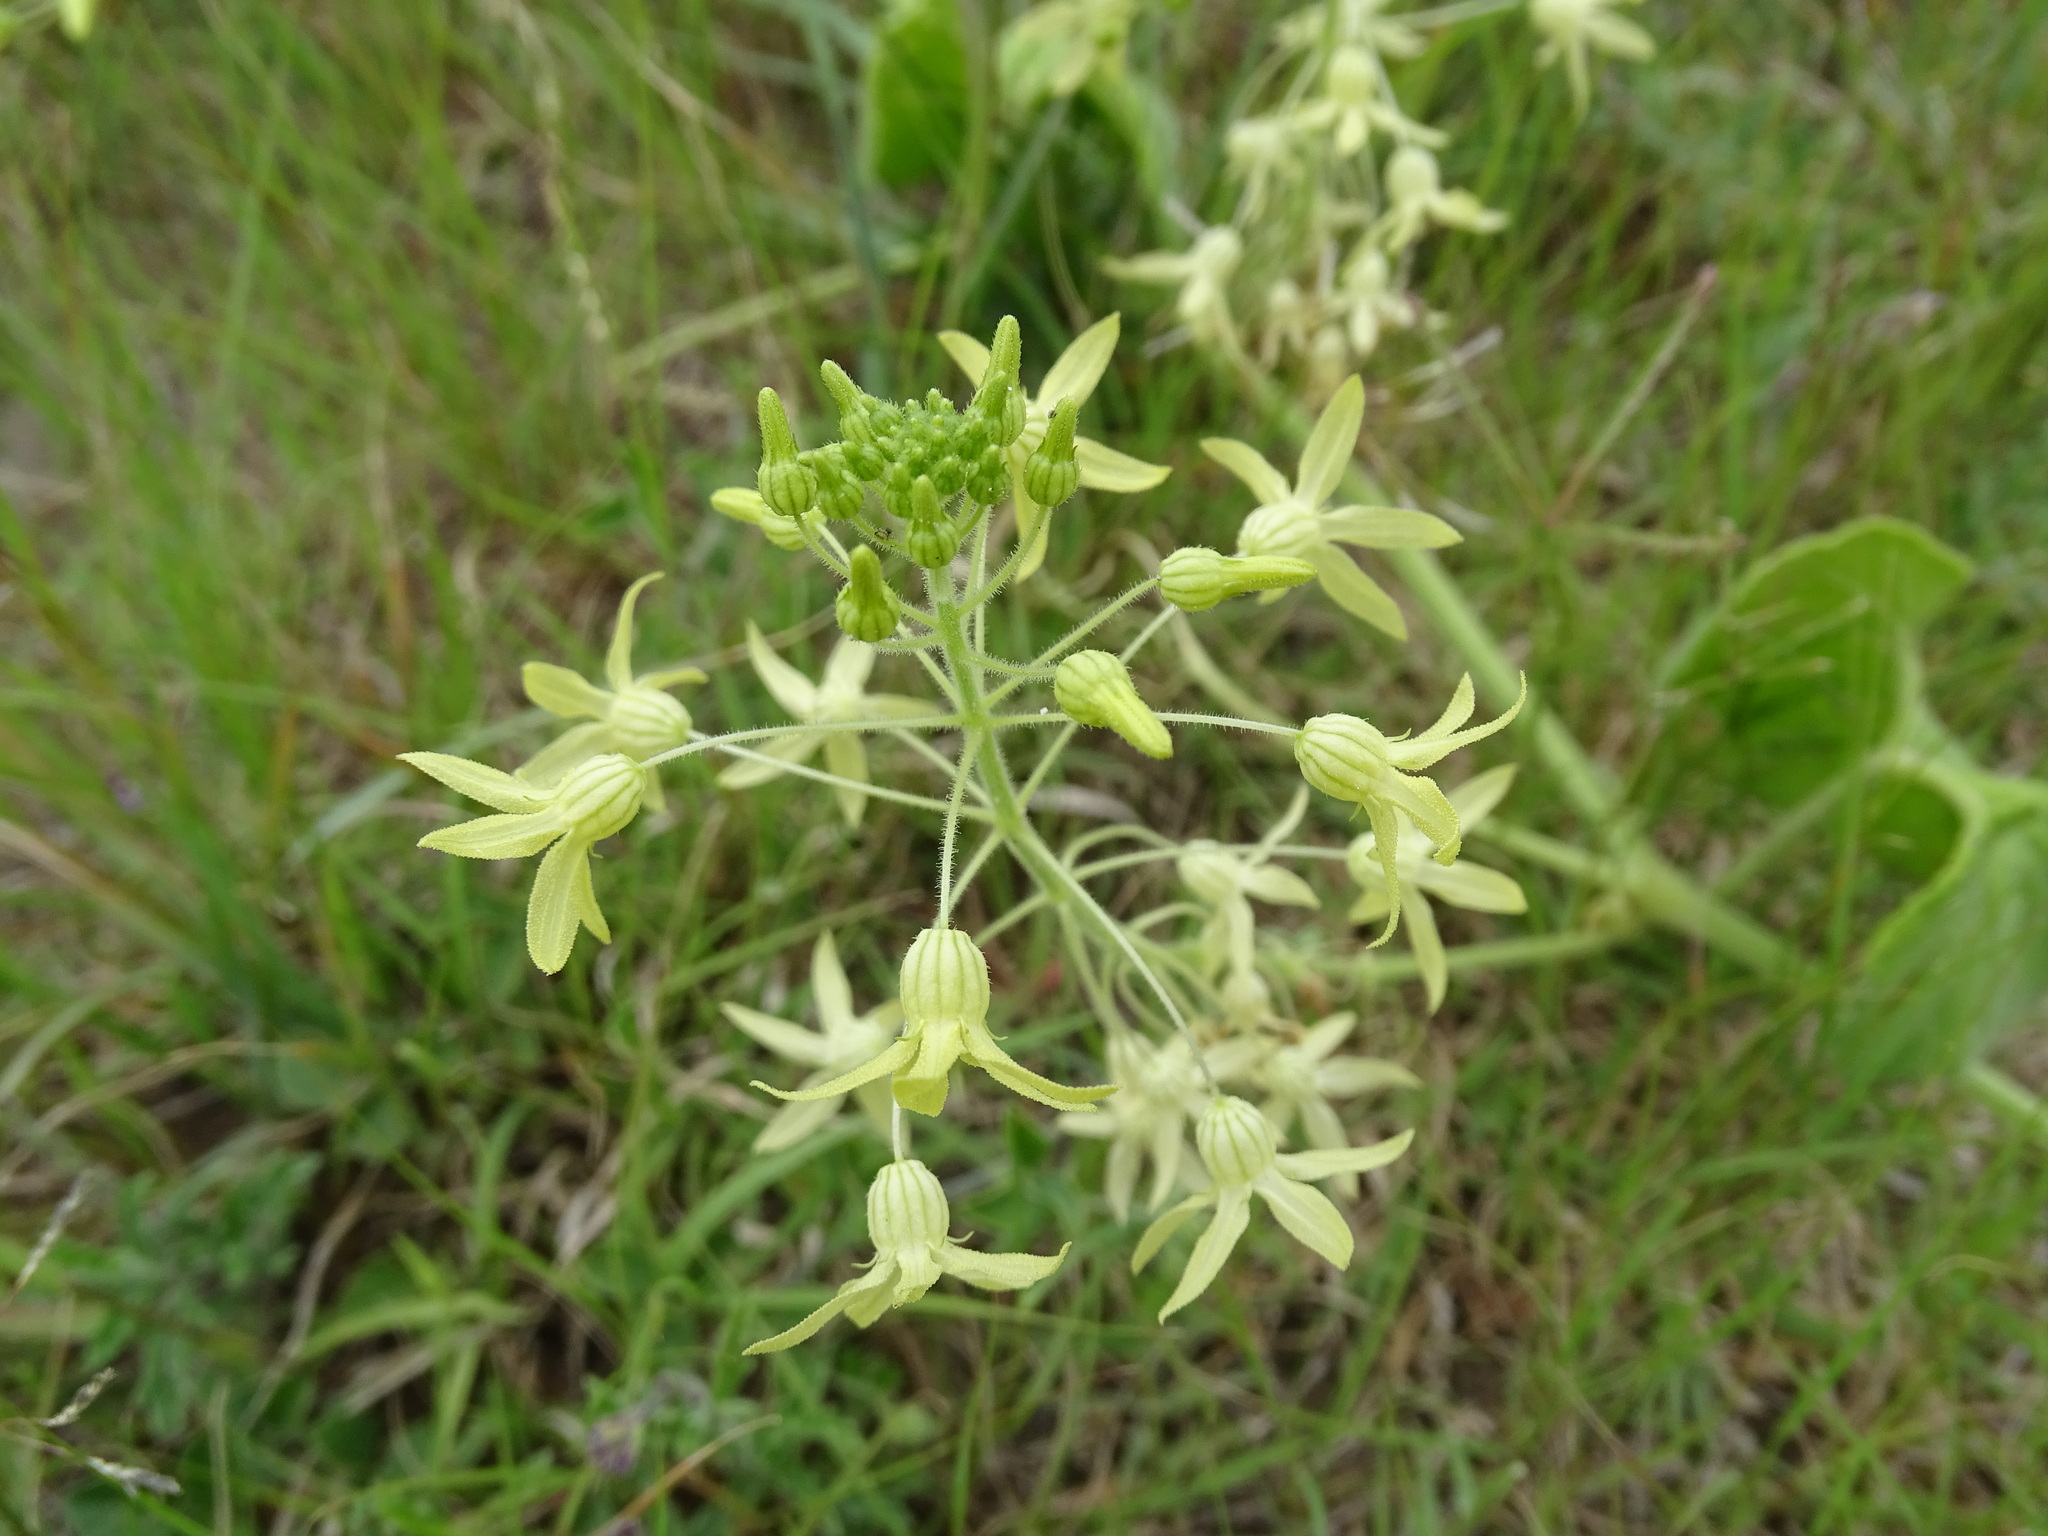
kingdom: Plantae
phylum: Tracheophyta
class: Magnoliopsida
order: Cucurbitales
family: Cucurbitaceae
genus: Echinopepon
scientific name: Echinopepon coulteri
